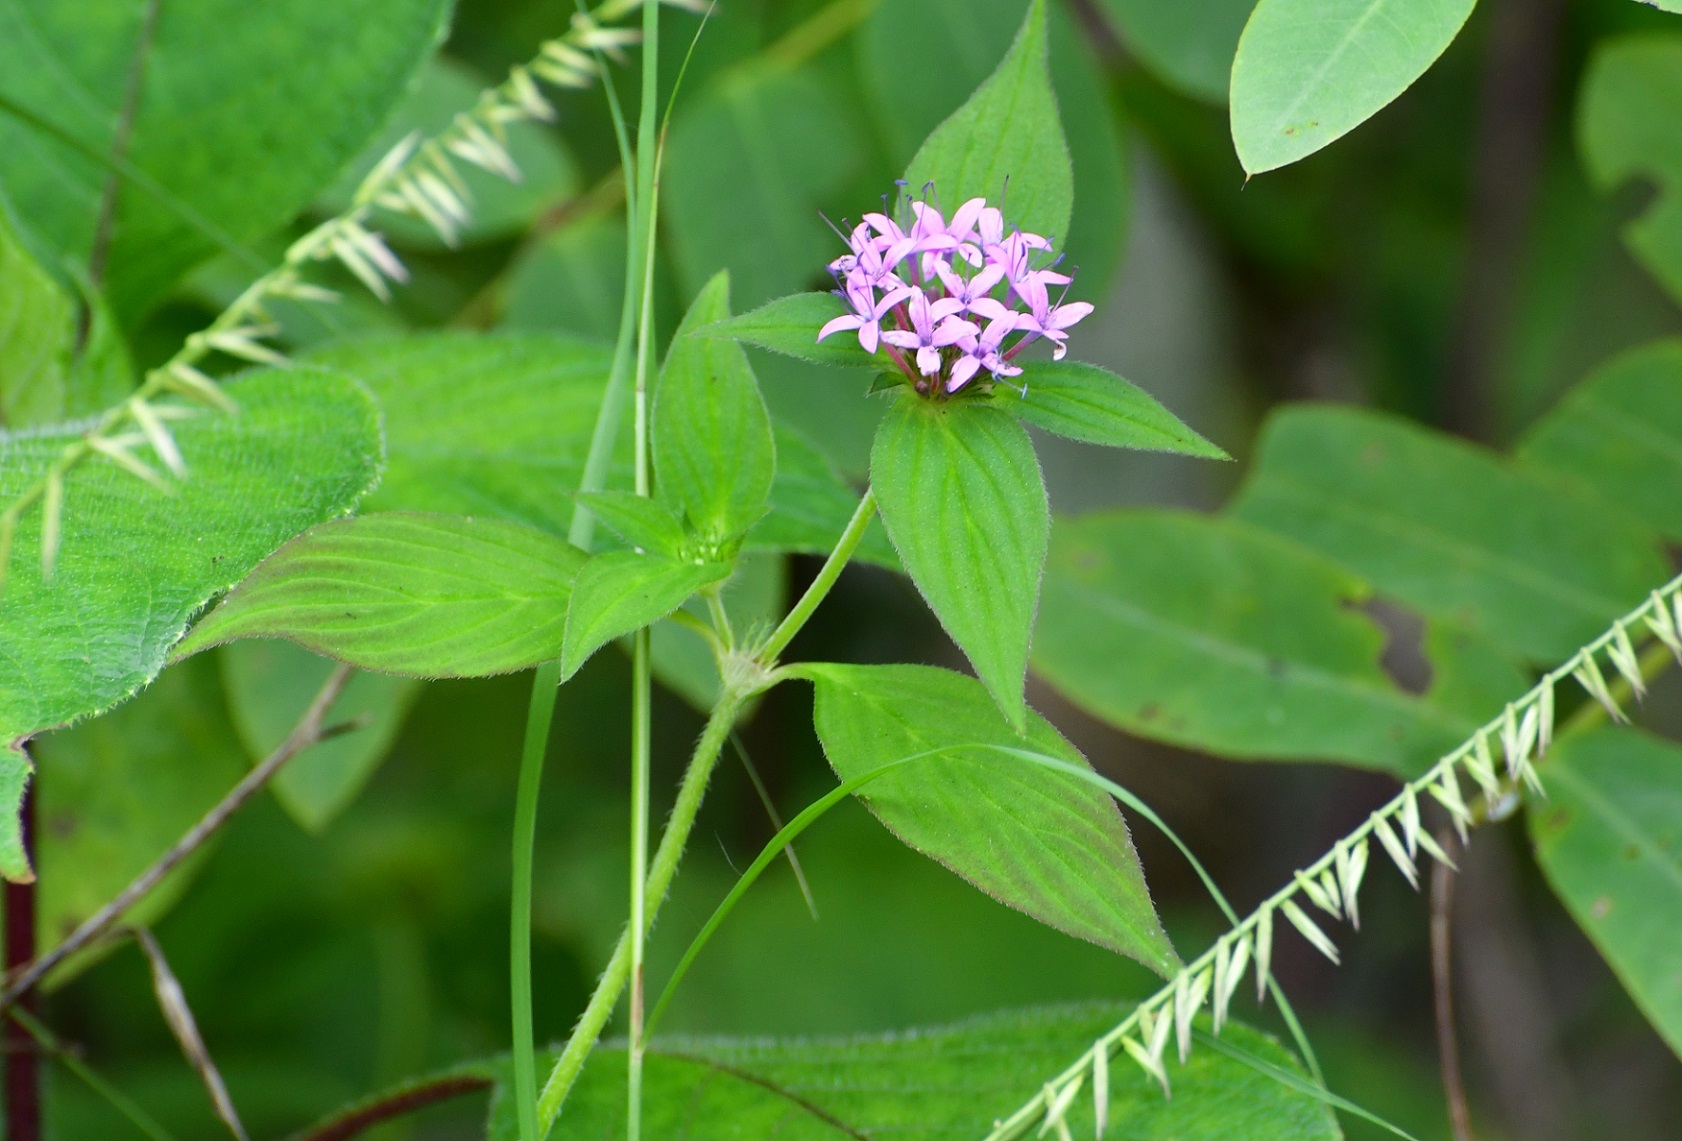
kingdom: Plantae
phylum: Tracheophyta
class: Magnoliopsida
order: Gentianales
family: Rubiaceae
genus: Crusea
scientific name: Crusea longiflora
